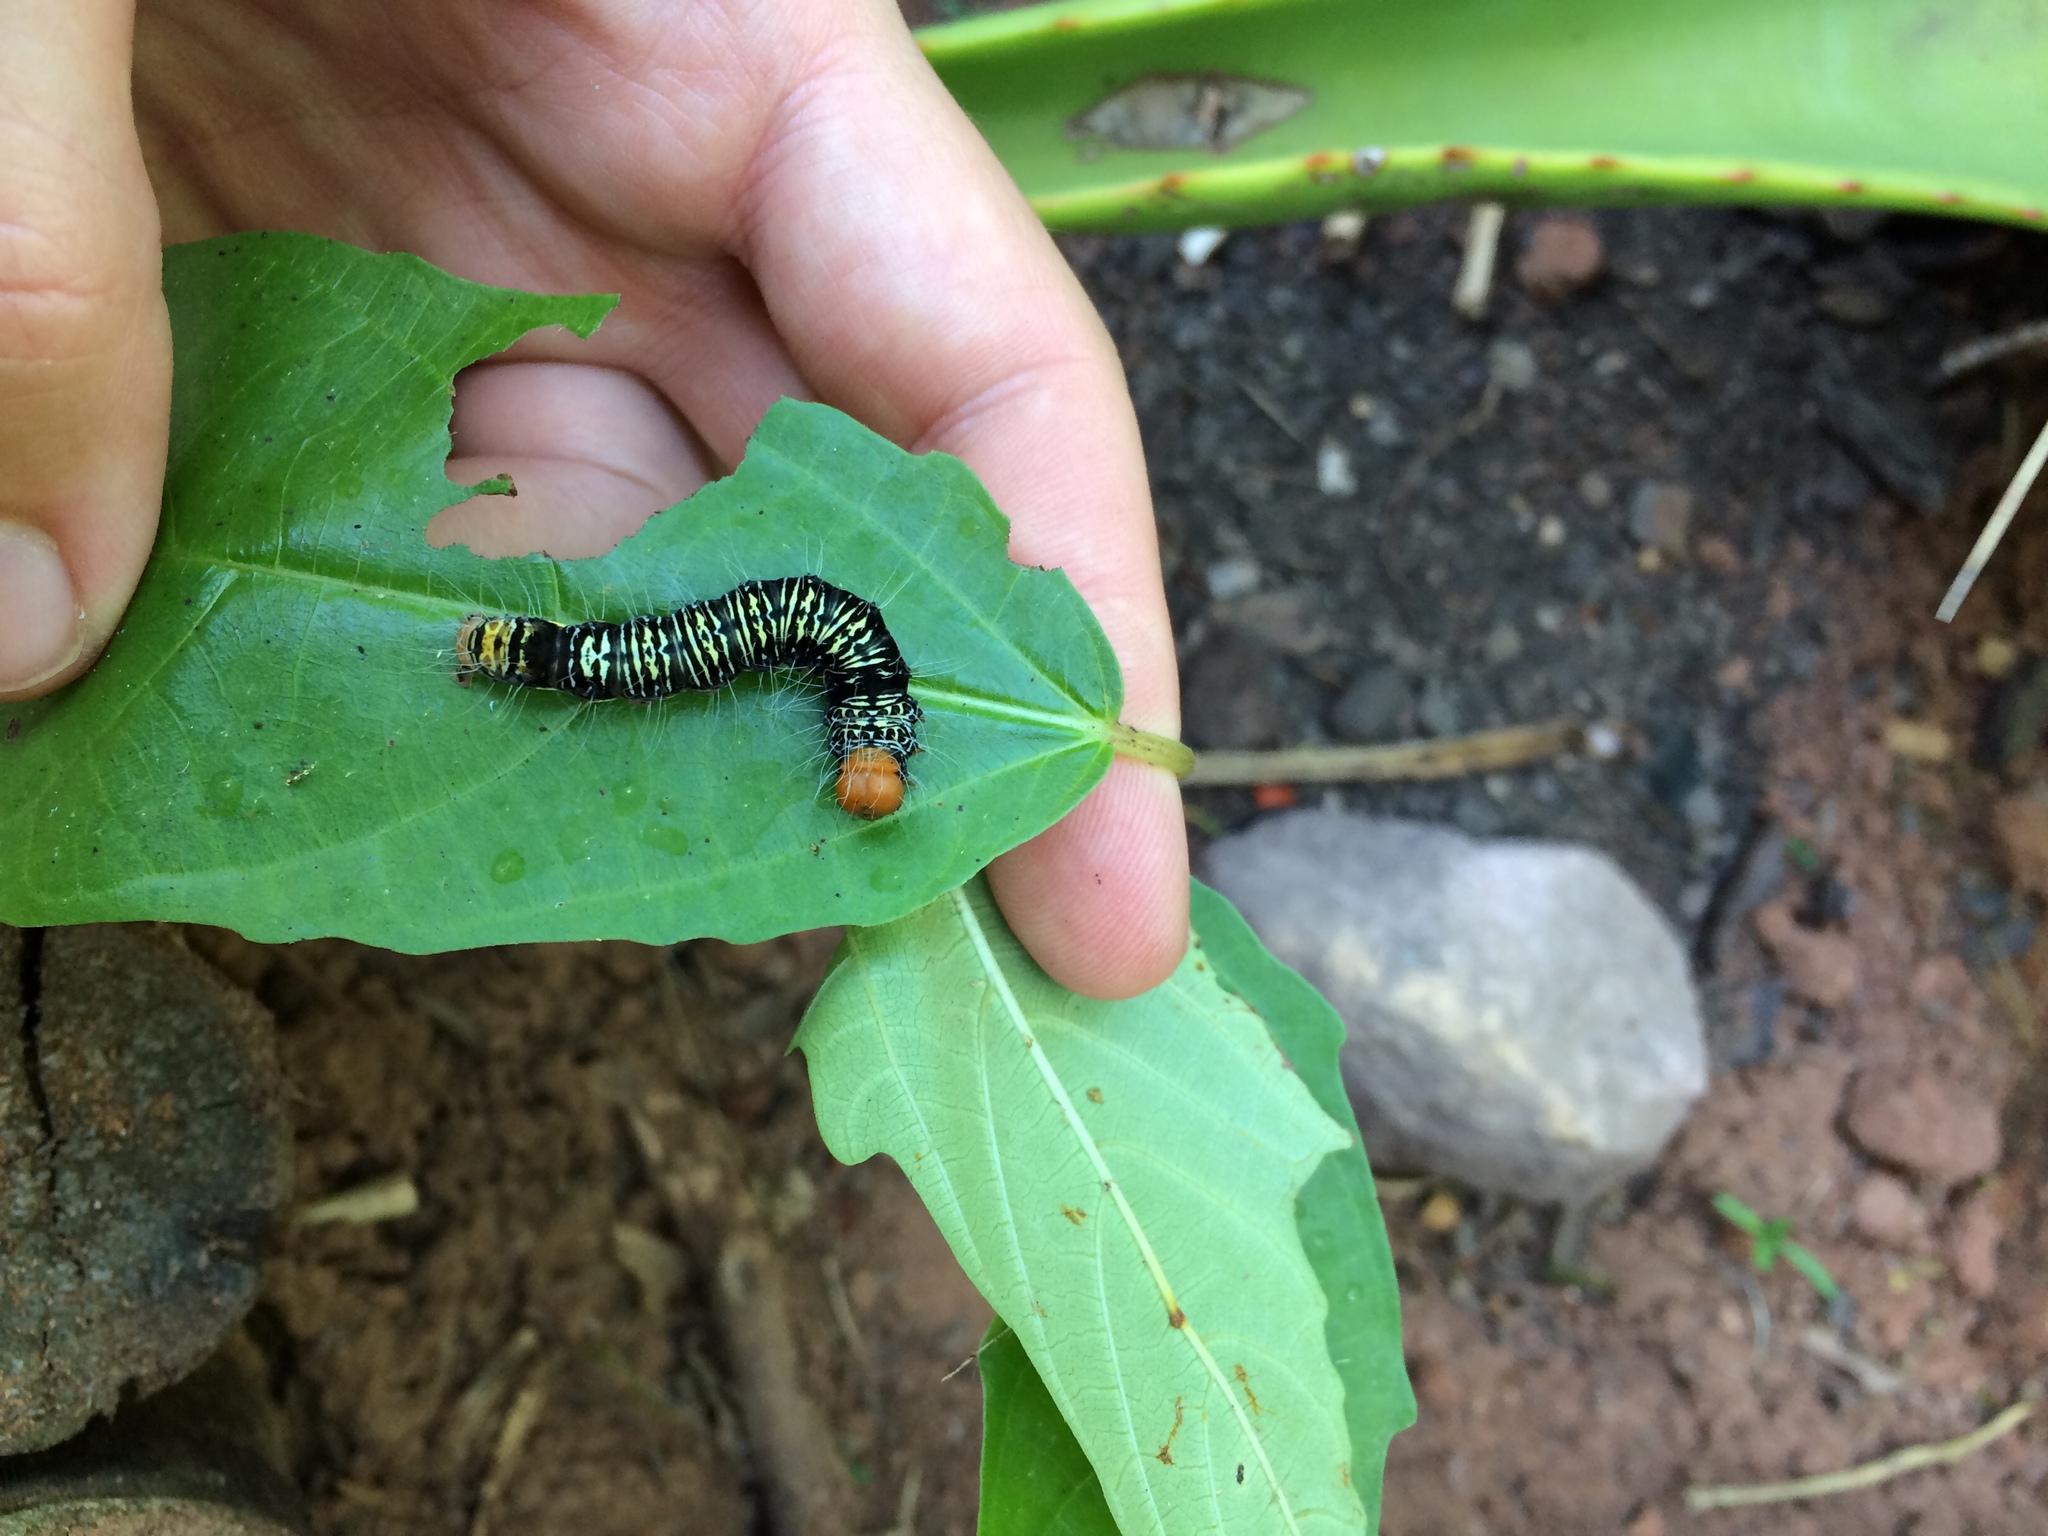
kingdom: Animalia
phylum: Arthropoda
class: Insecta
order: Lepidoptera
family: Erebidae
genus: Asota
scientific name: Asota speciosa
